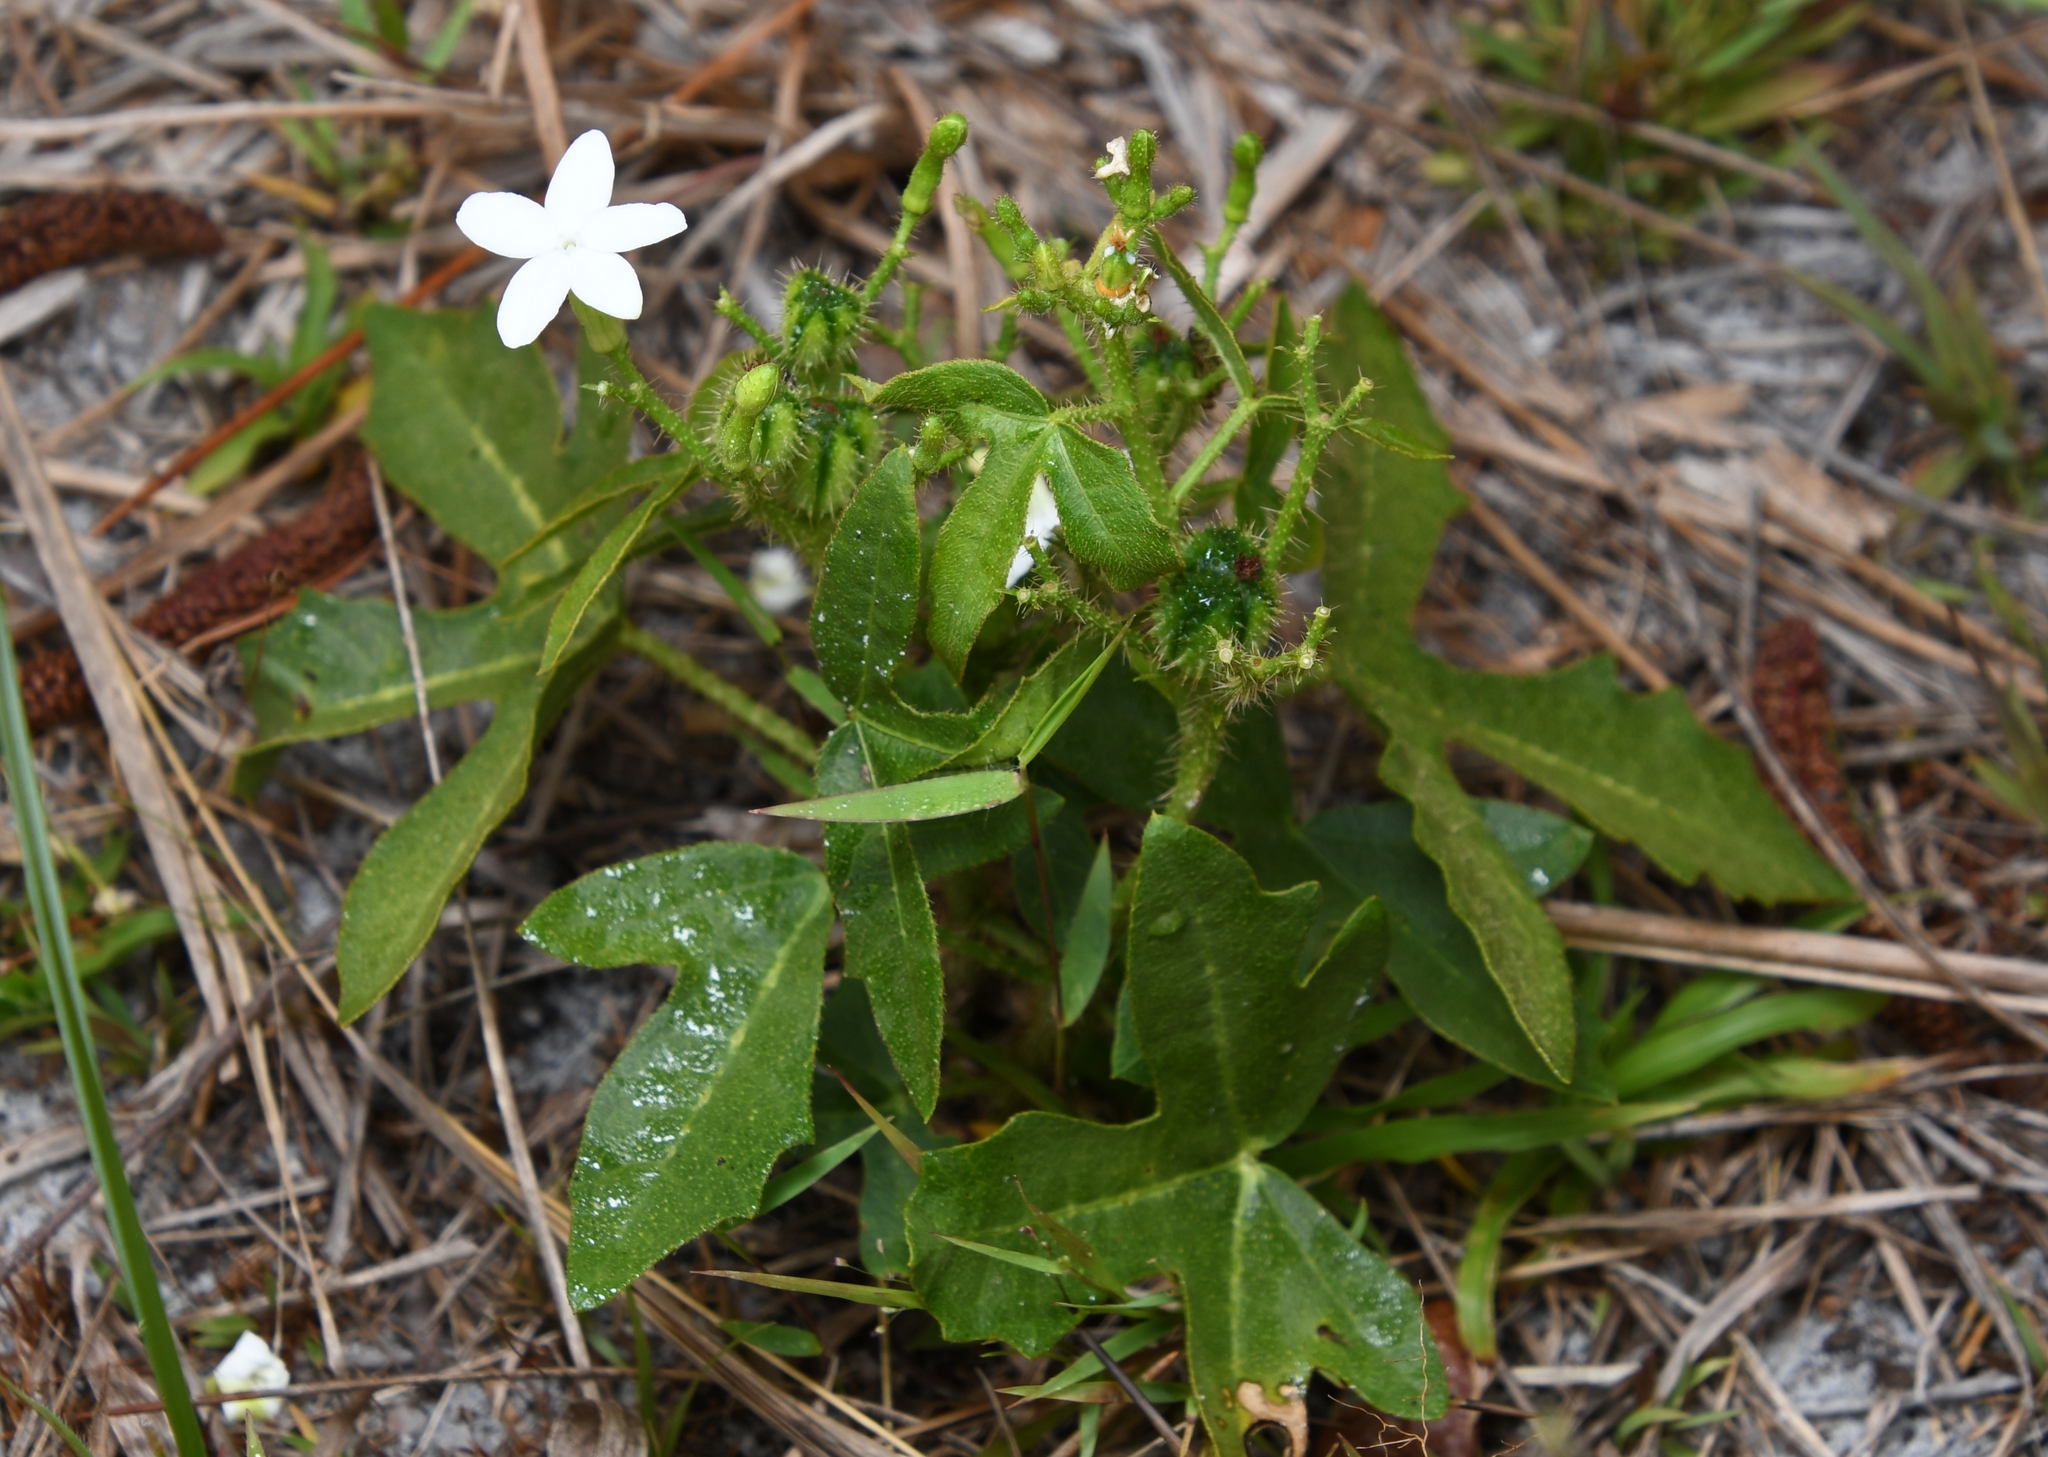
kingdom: Plantae
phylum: Tracheophyta
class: Magnoliopsida
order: Malpighiales
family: Euphorbiaceae
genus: Cnidoscolus
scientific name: Cnidoscolus stimulosus
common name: Bull-nettle
